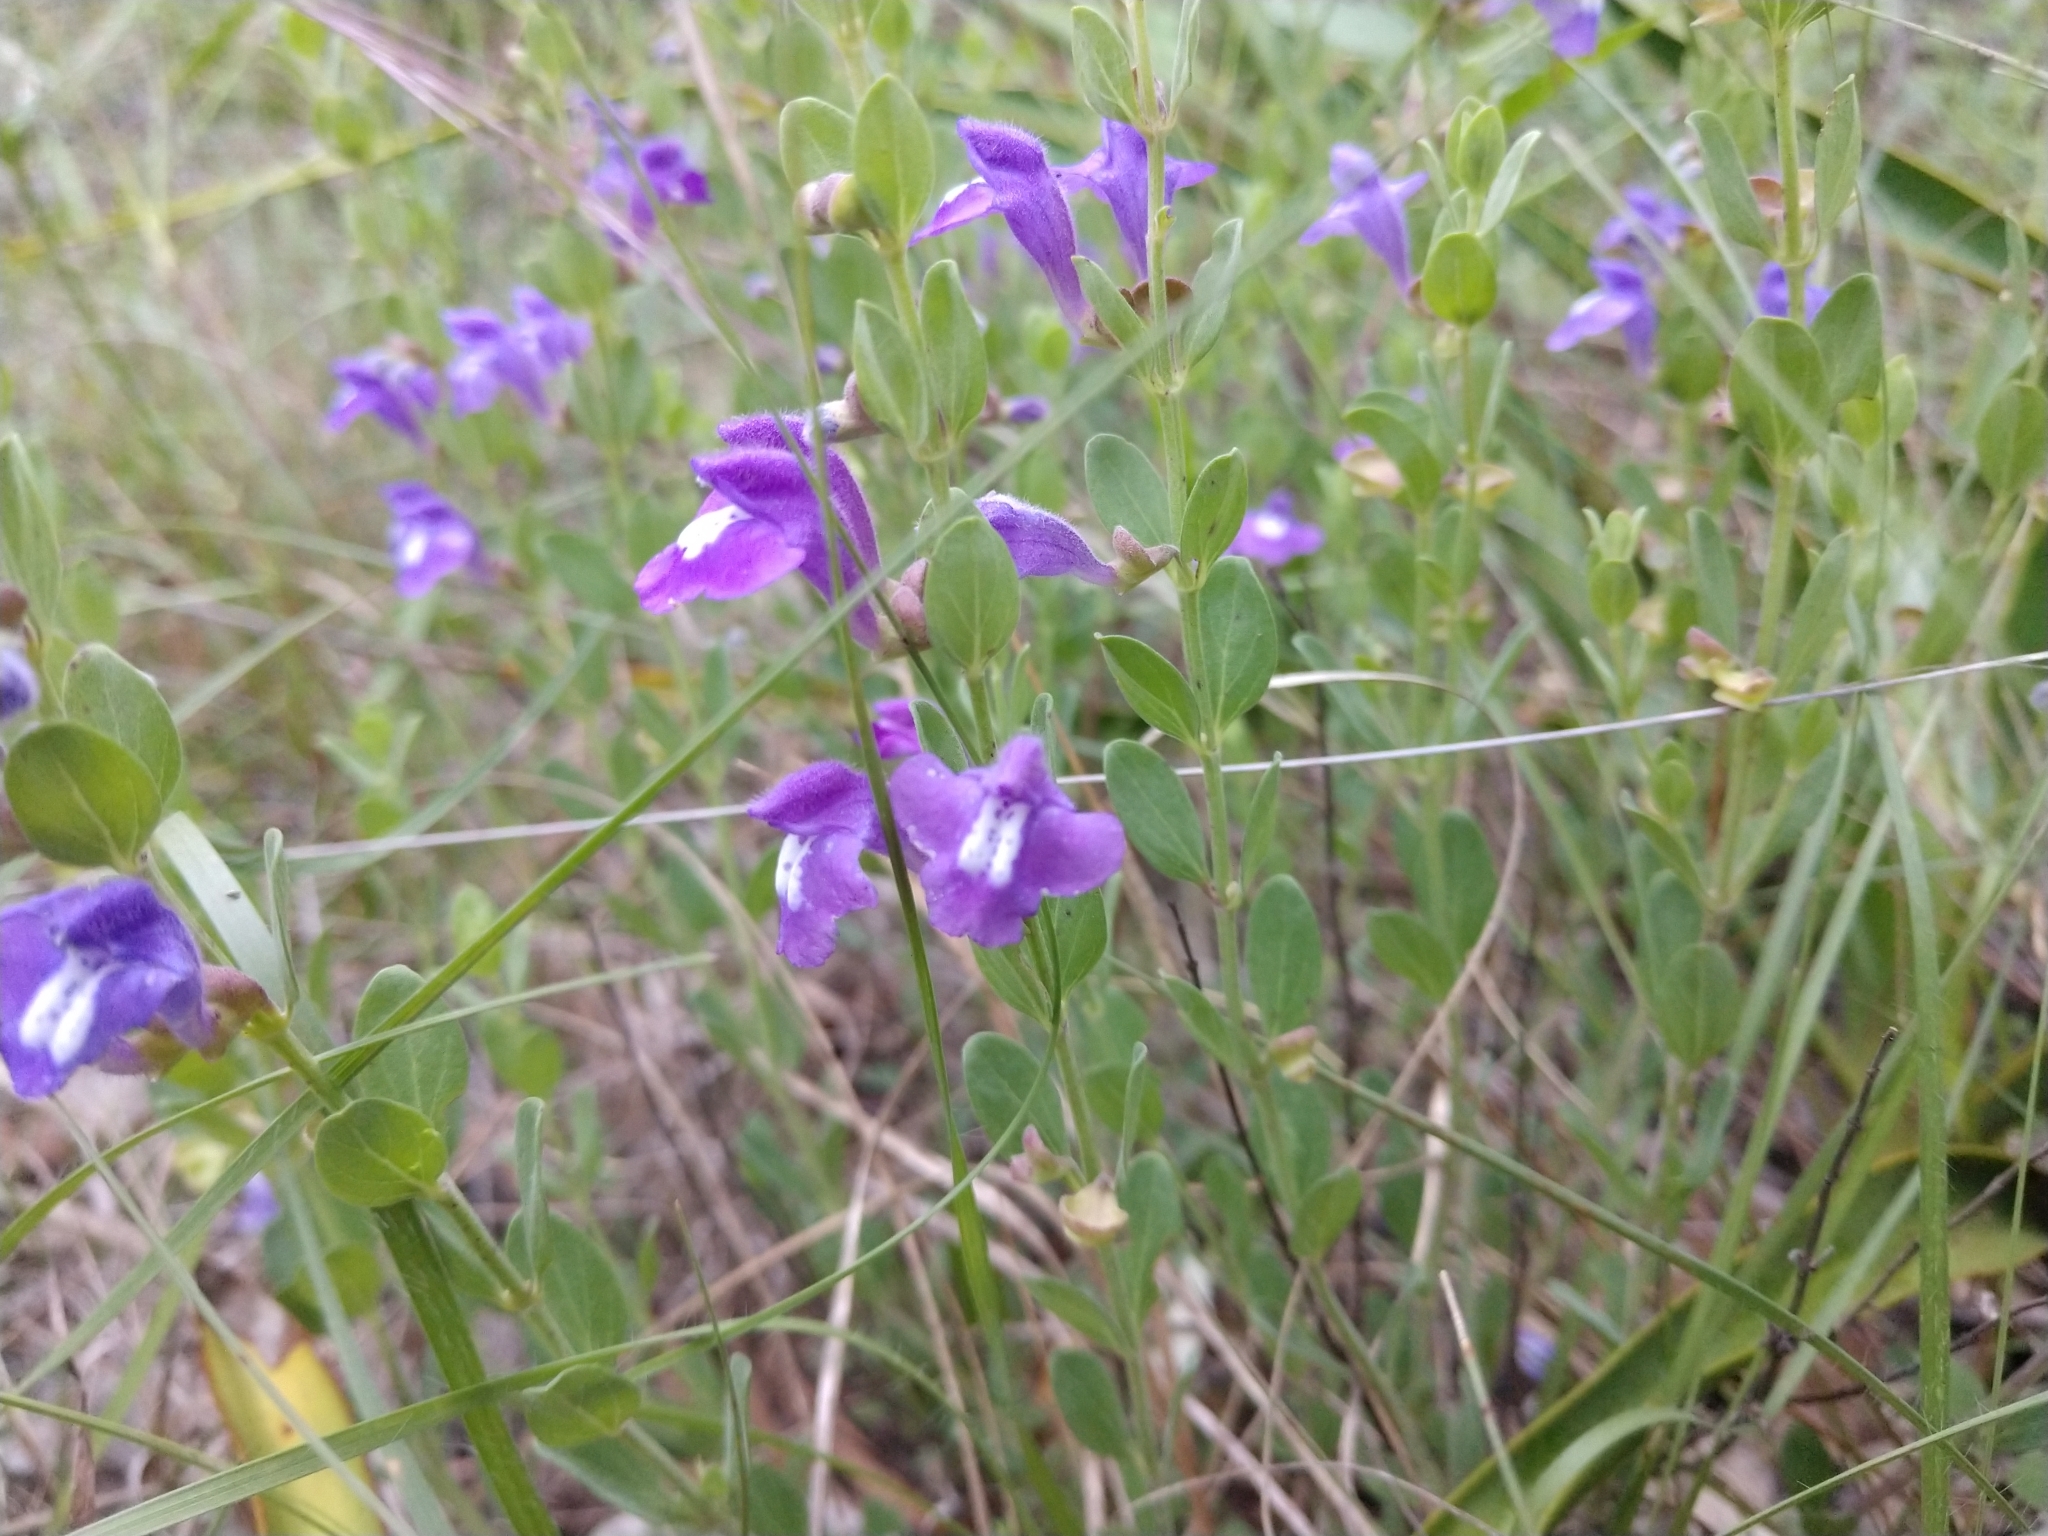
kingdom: Plantae
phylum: Tracheophyta
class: Magnoliopsida
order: Lamiales
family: Lamiaceae
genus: Scutellaria
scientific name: Scutellaria wrightii
